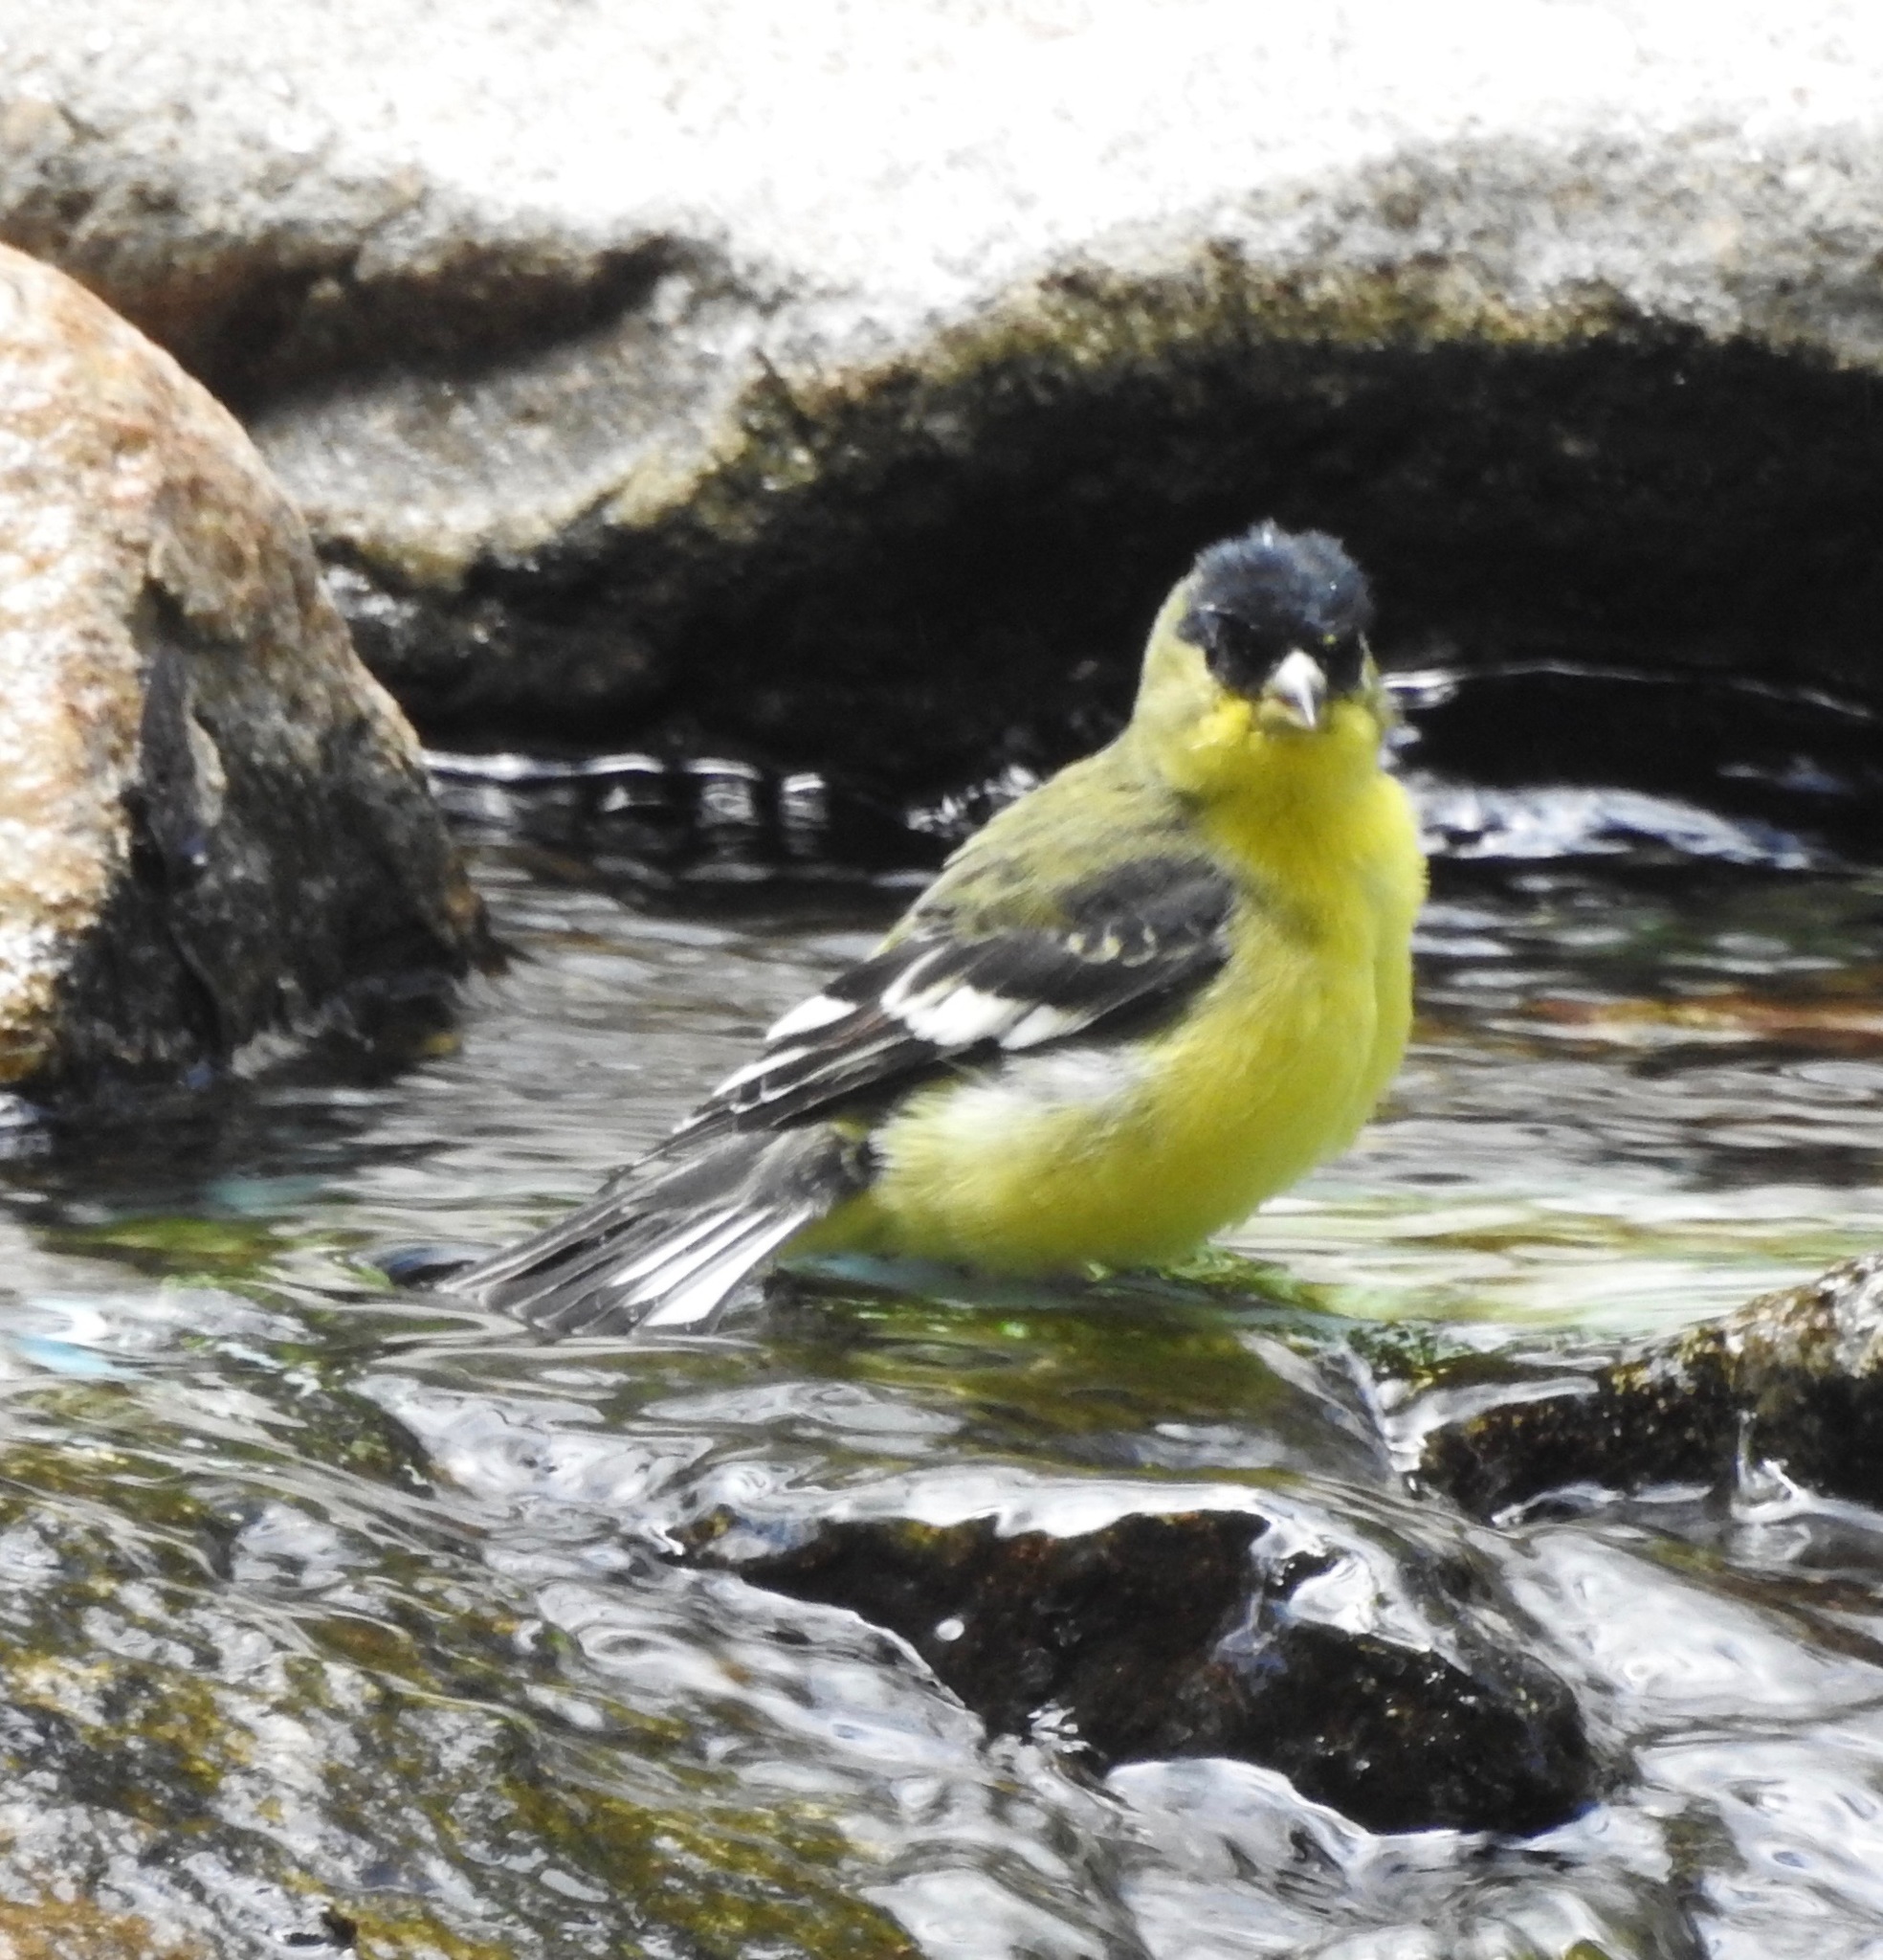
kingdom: Animalia
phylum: Chordata
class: Aves
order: Passeriformes
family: Fringillidae
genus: Spinus
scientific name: Spinus psaltria
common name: Lesser goldfinch
